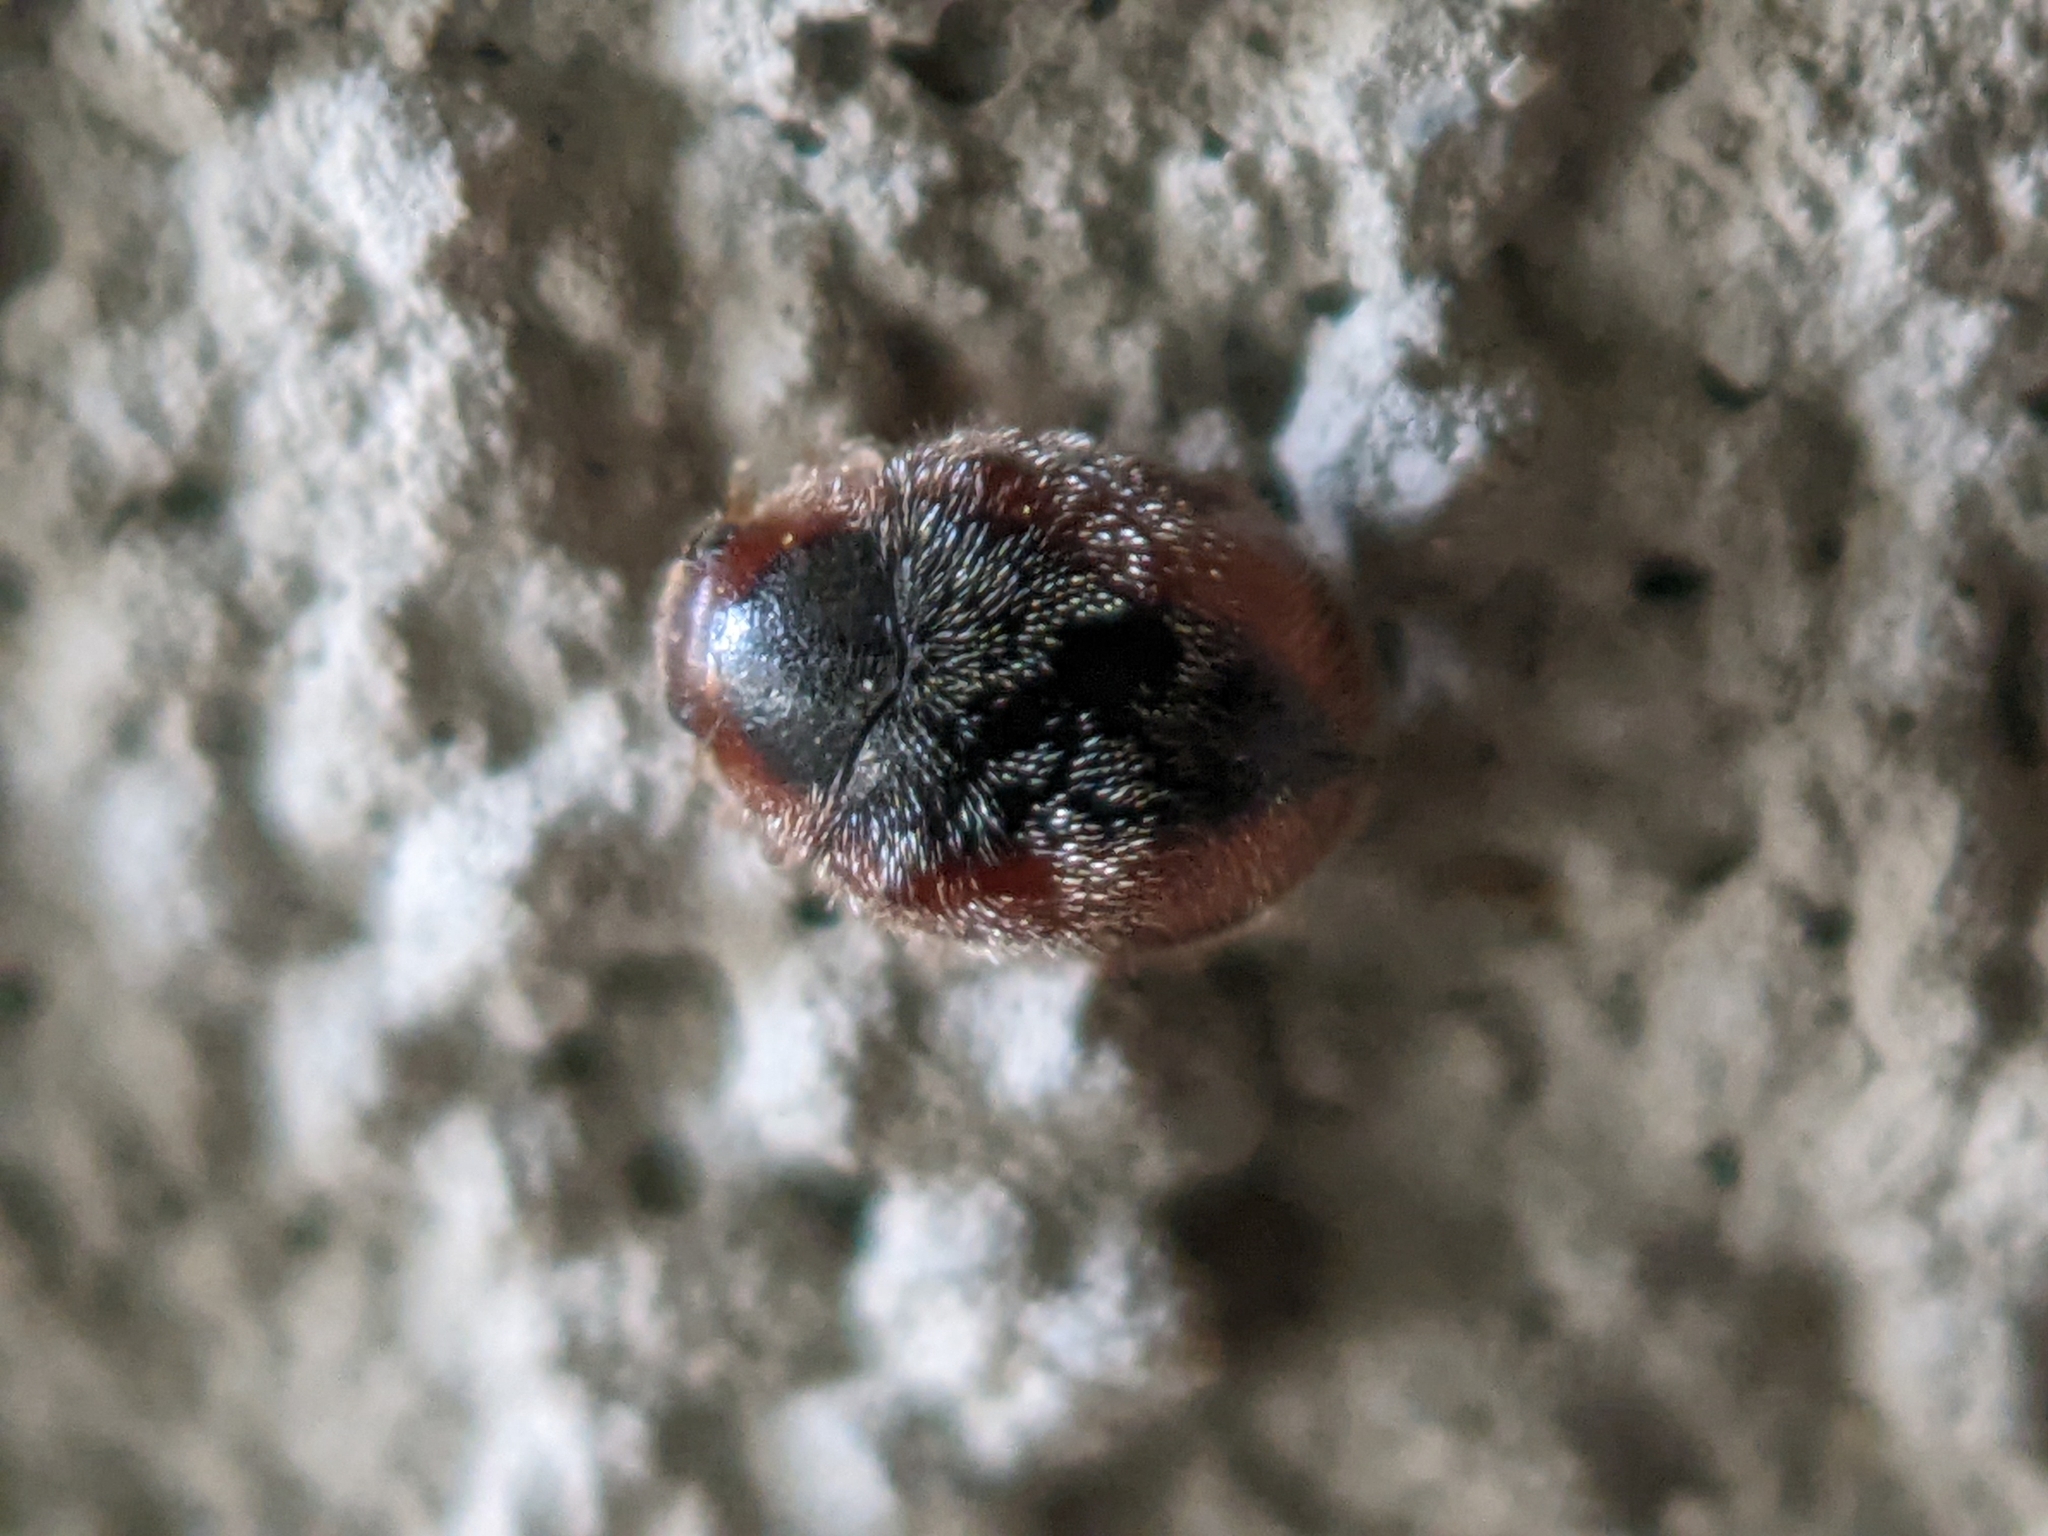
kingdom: Animalia
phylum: Arthropoda
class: Insecta
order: Coleoptera
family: Coccinellidae
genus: Scymnus
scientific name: Scymnus loewii
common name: Dusky lady beetle
